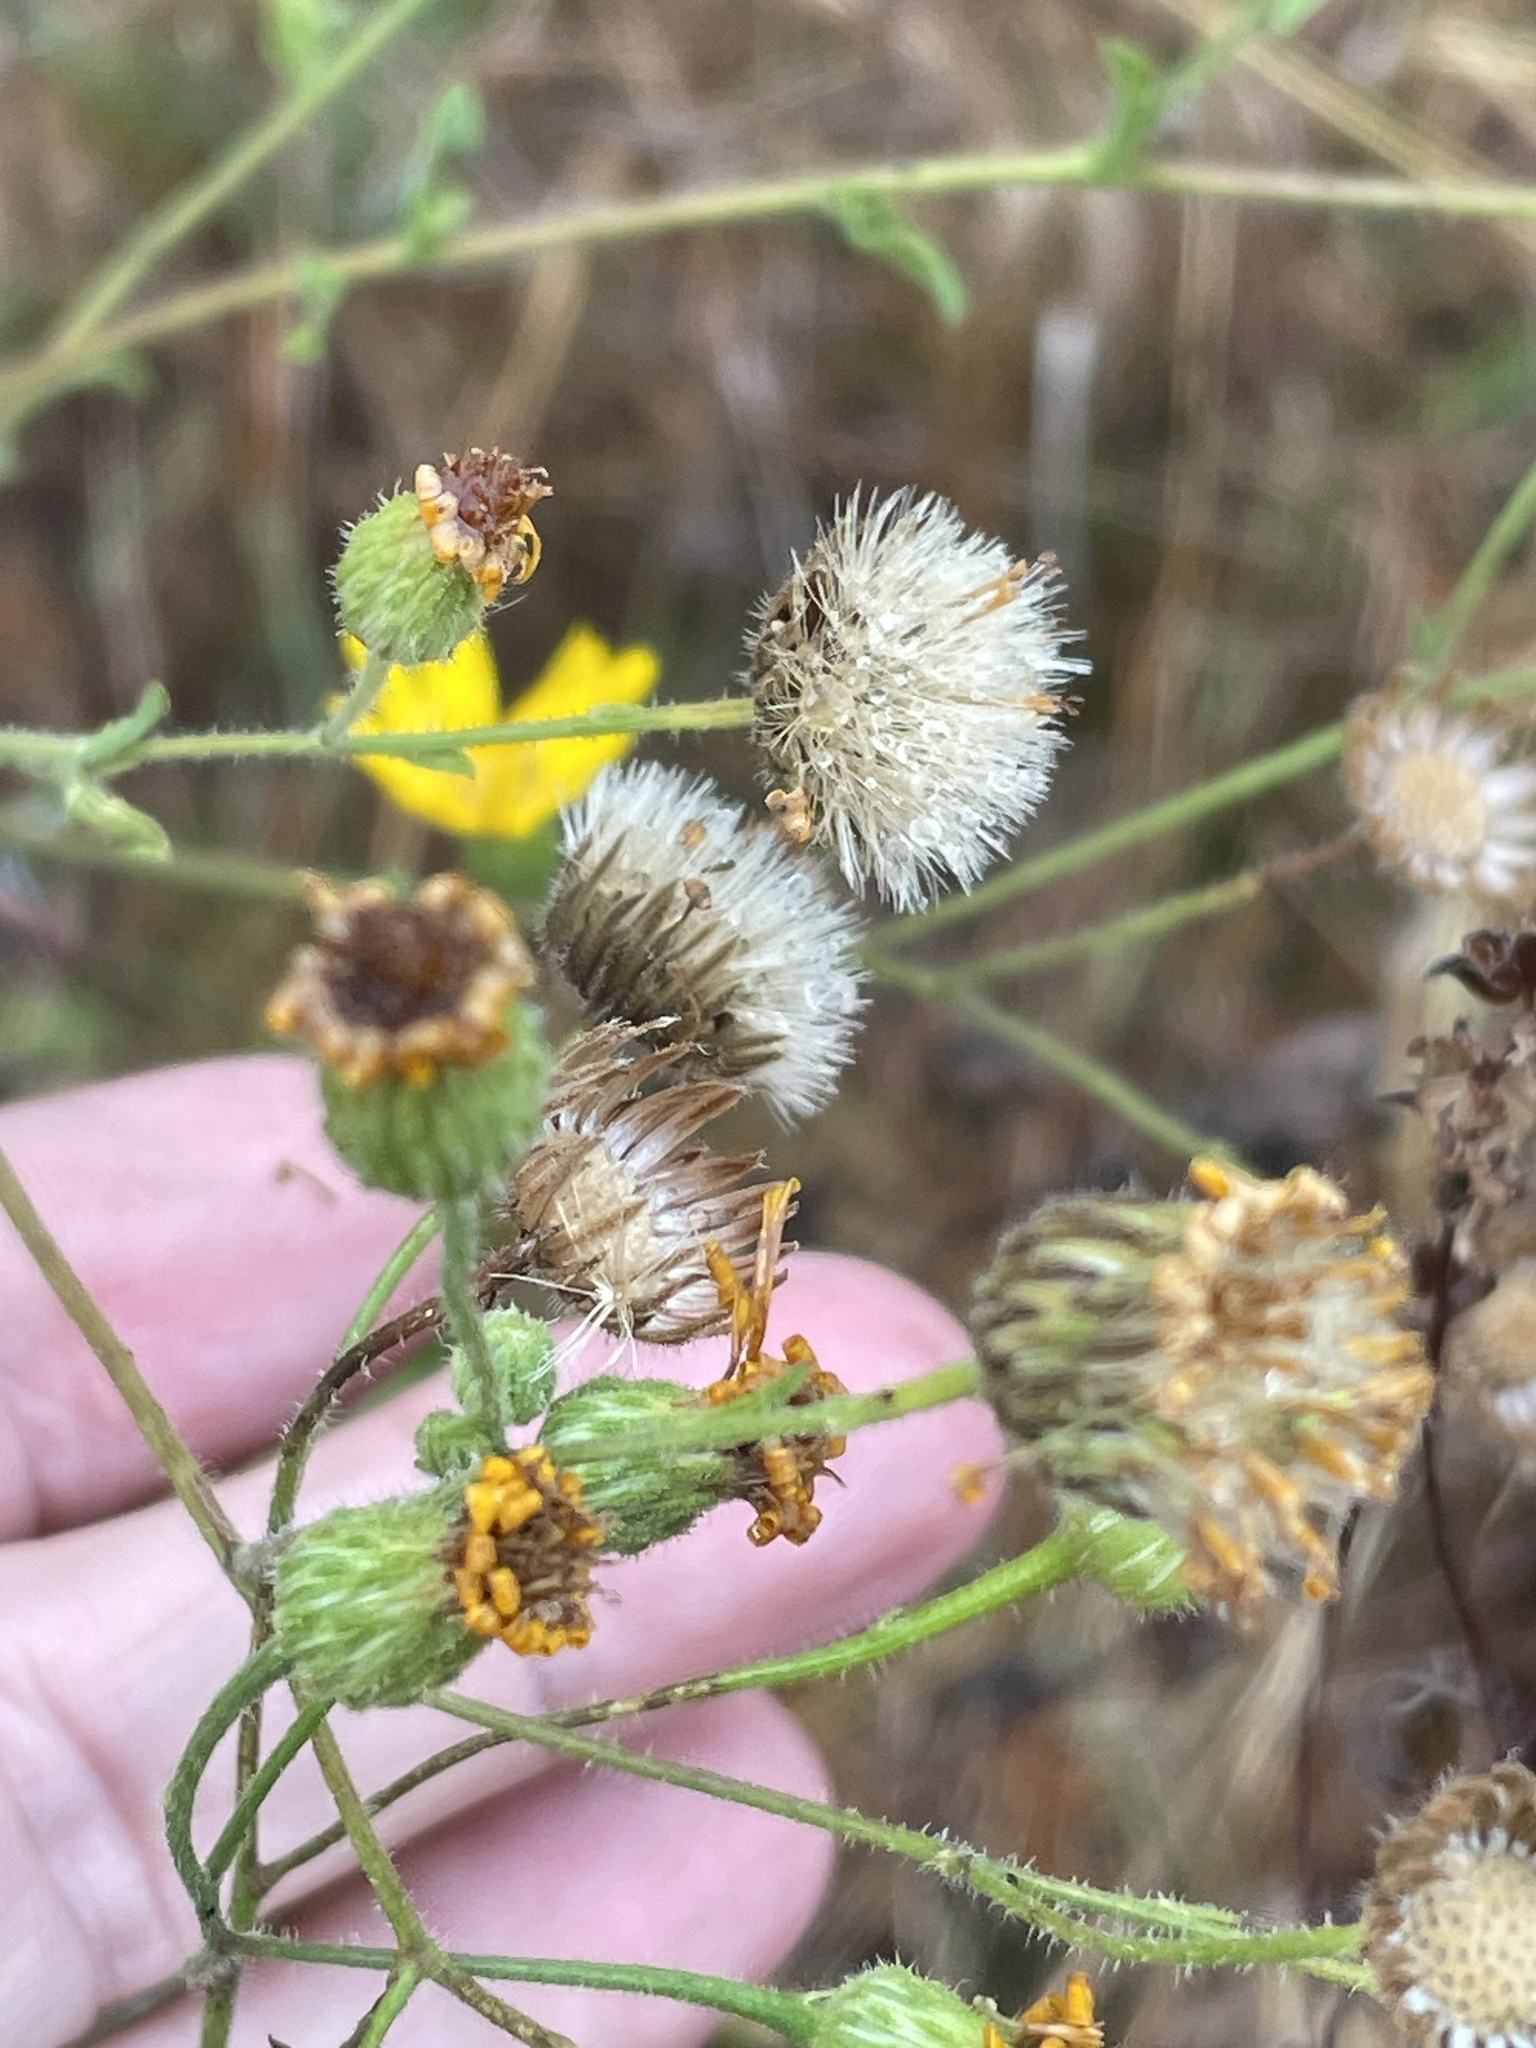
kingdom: Plantae
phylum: Tracheophyta
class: Magnoliopsida
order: Asterales
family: Asteraceae
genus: Heterotheca
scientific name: Heterotheca subaxillaris
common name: Camphorweed
